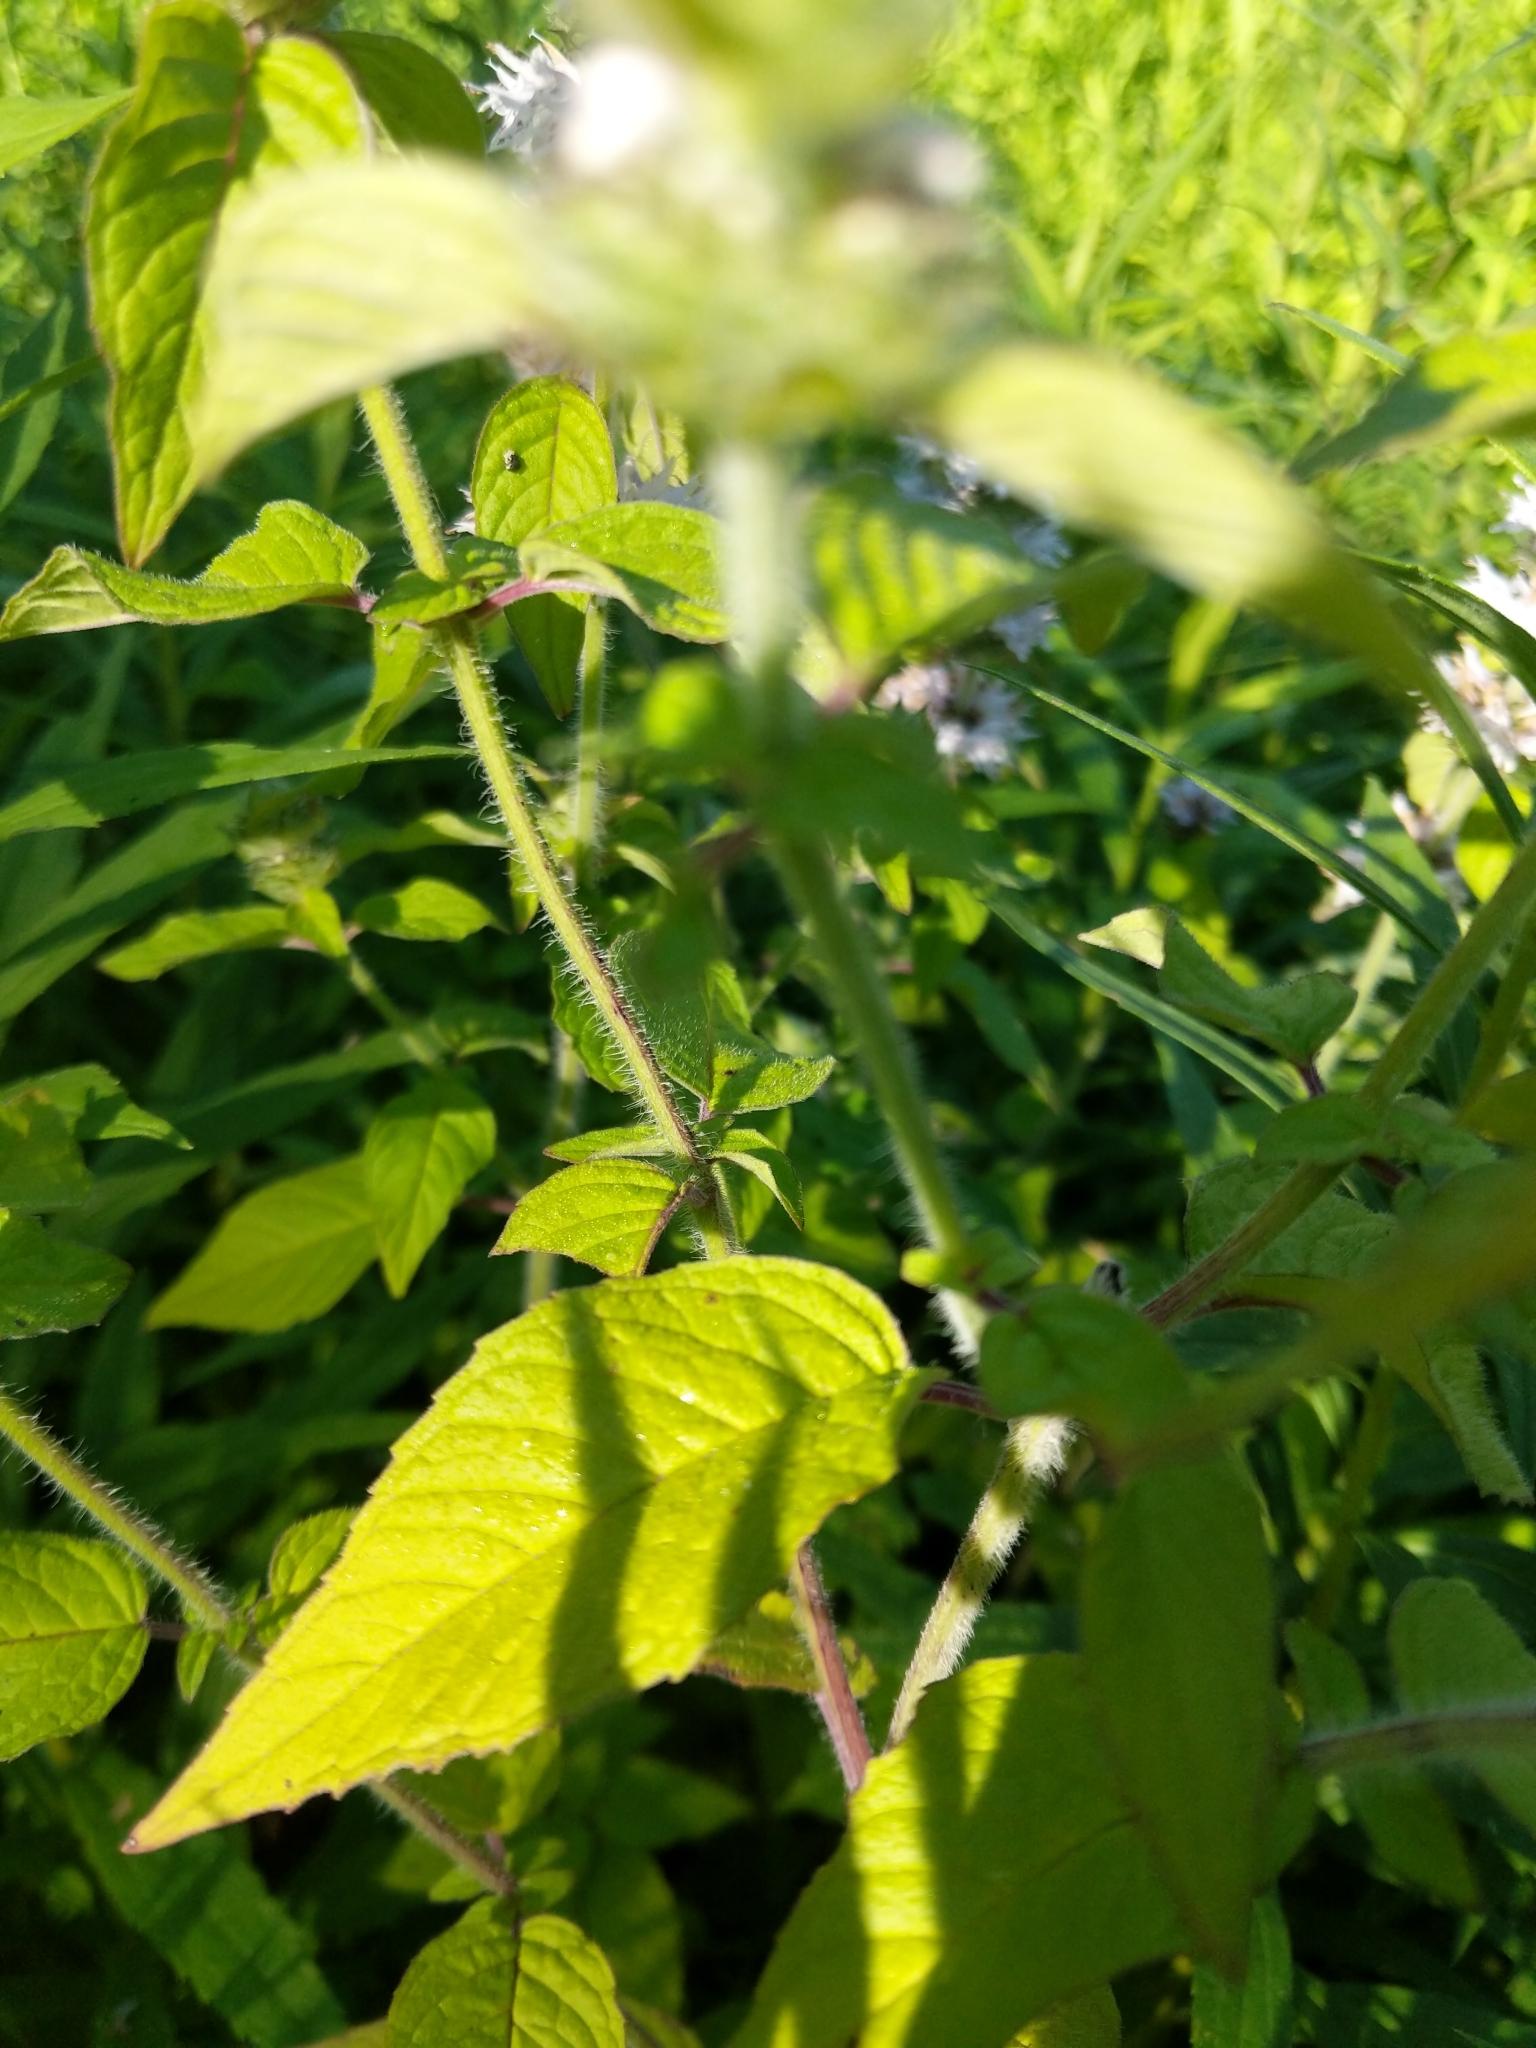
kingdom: Plantae
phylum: Tracheophyta
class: Magnoliopsida
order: Lamiales
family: Lamiaceae
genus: Blephilia
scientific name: Blephilia hirsuta
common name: Hairy blephilia
